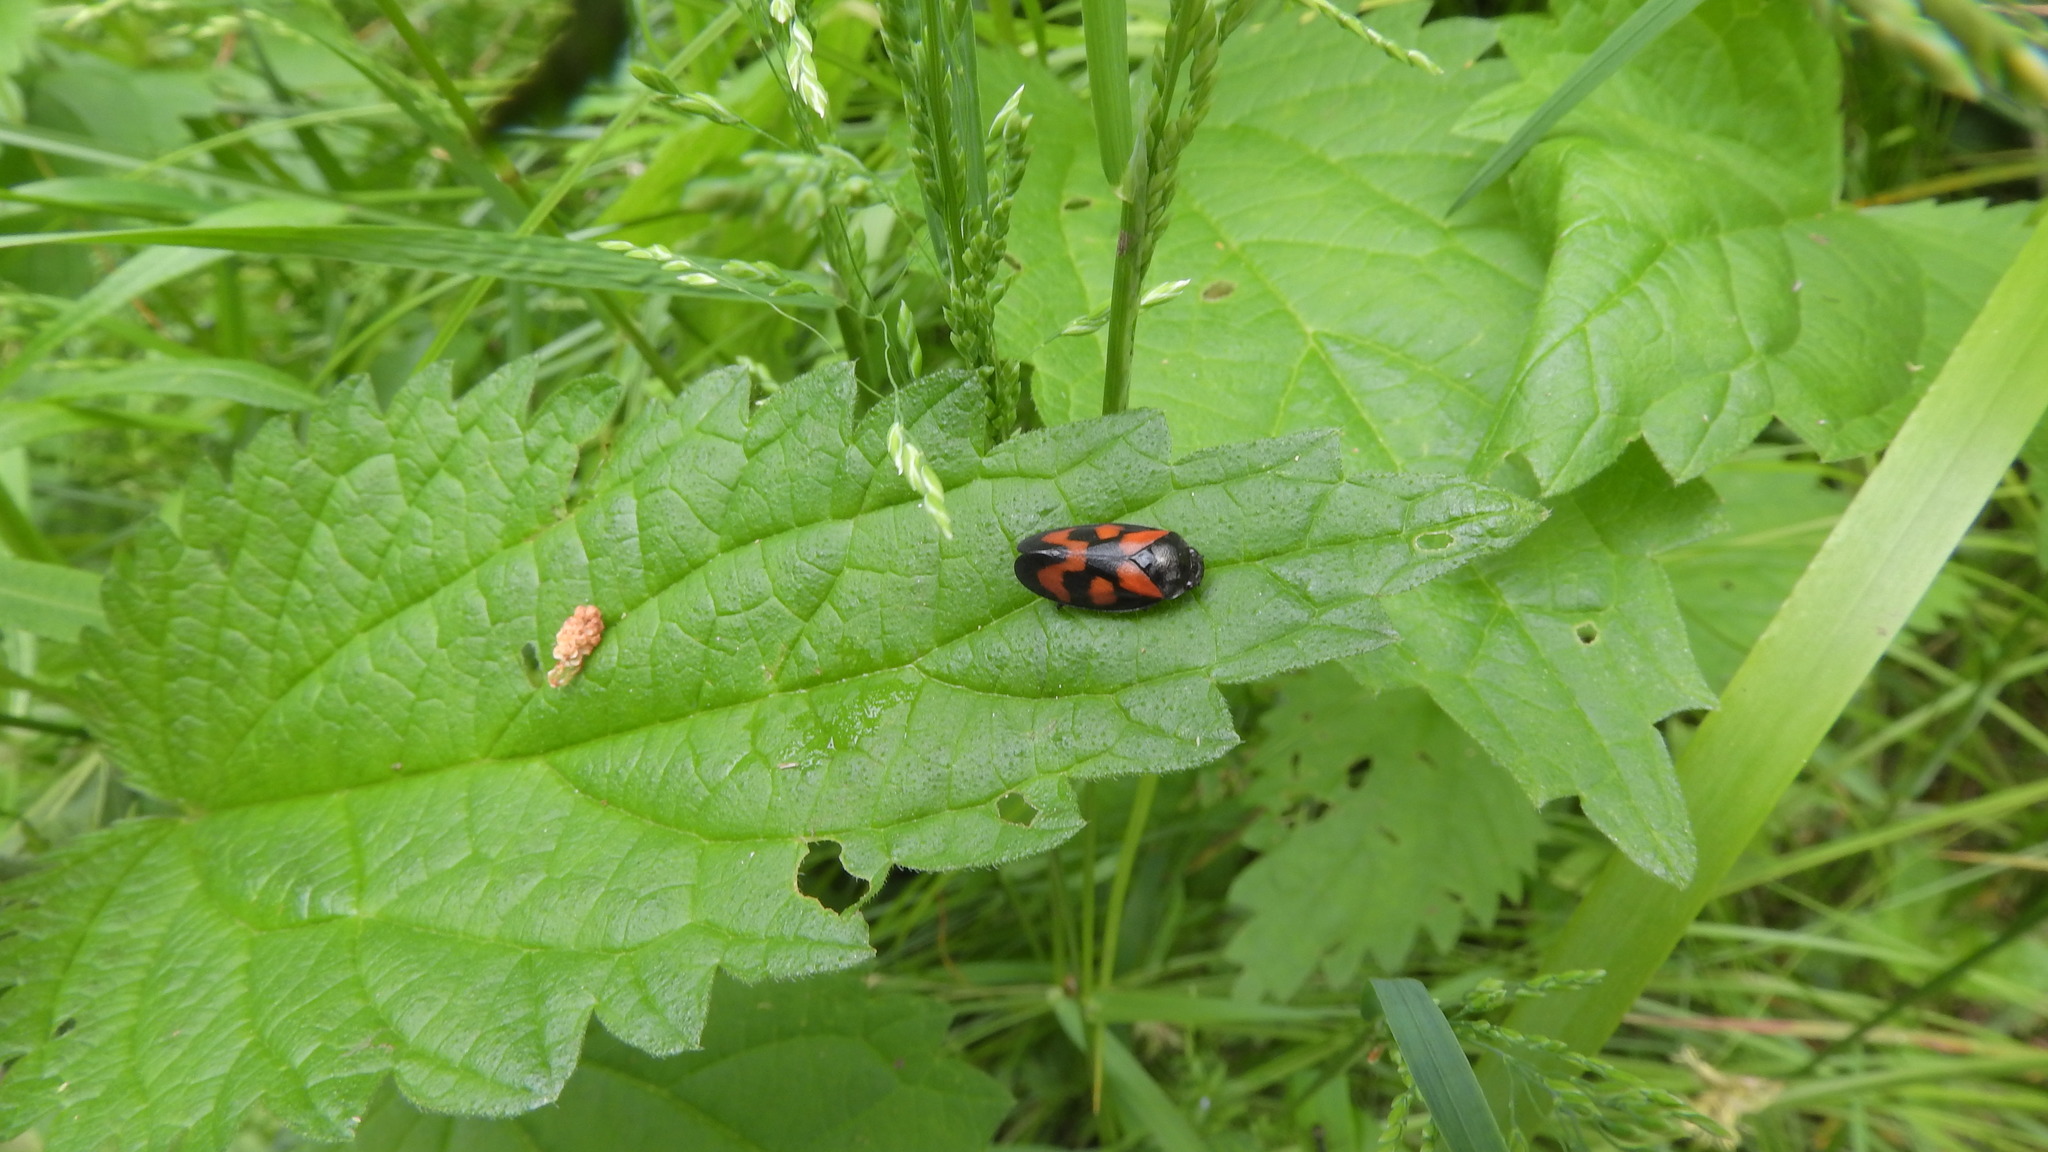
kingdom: Animalia
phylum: Arthropoda
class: Insecta
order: Hemiptera
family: Cercopidae
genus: Cercopis
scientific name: Cercopis vulnerata
